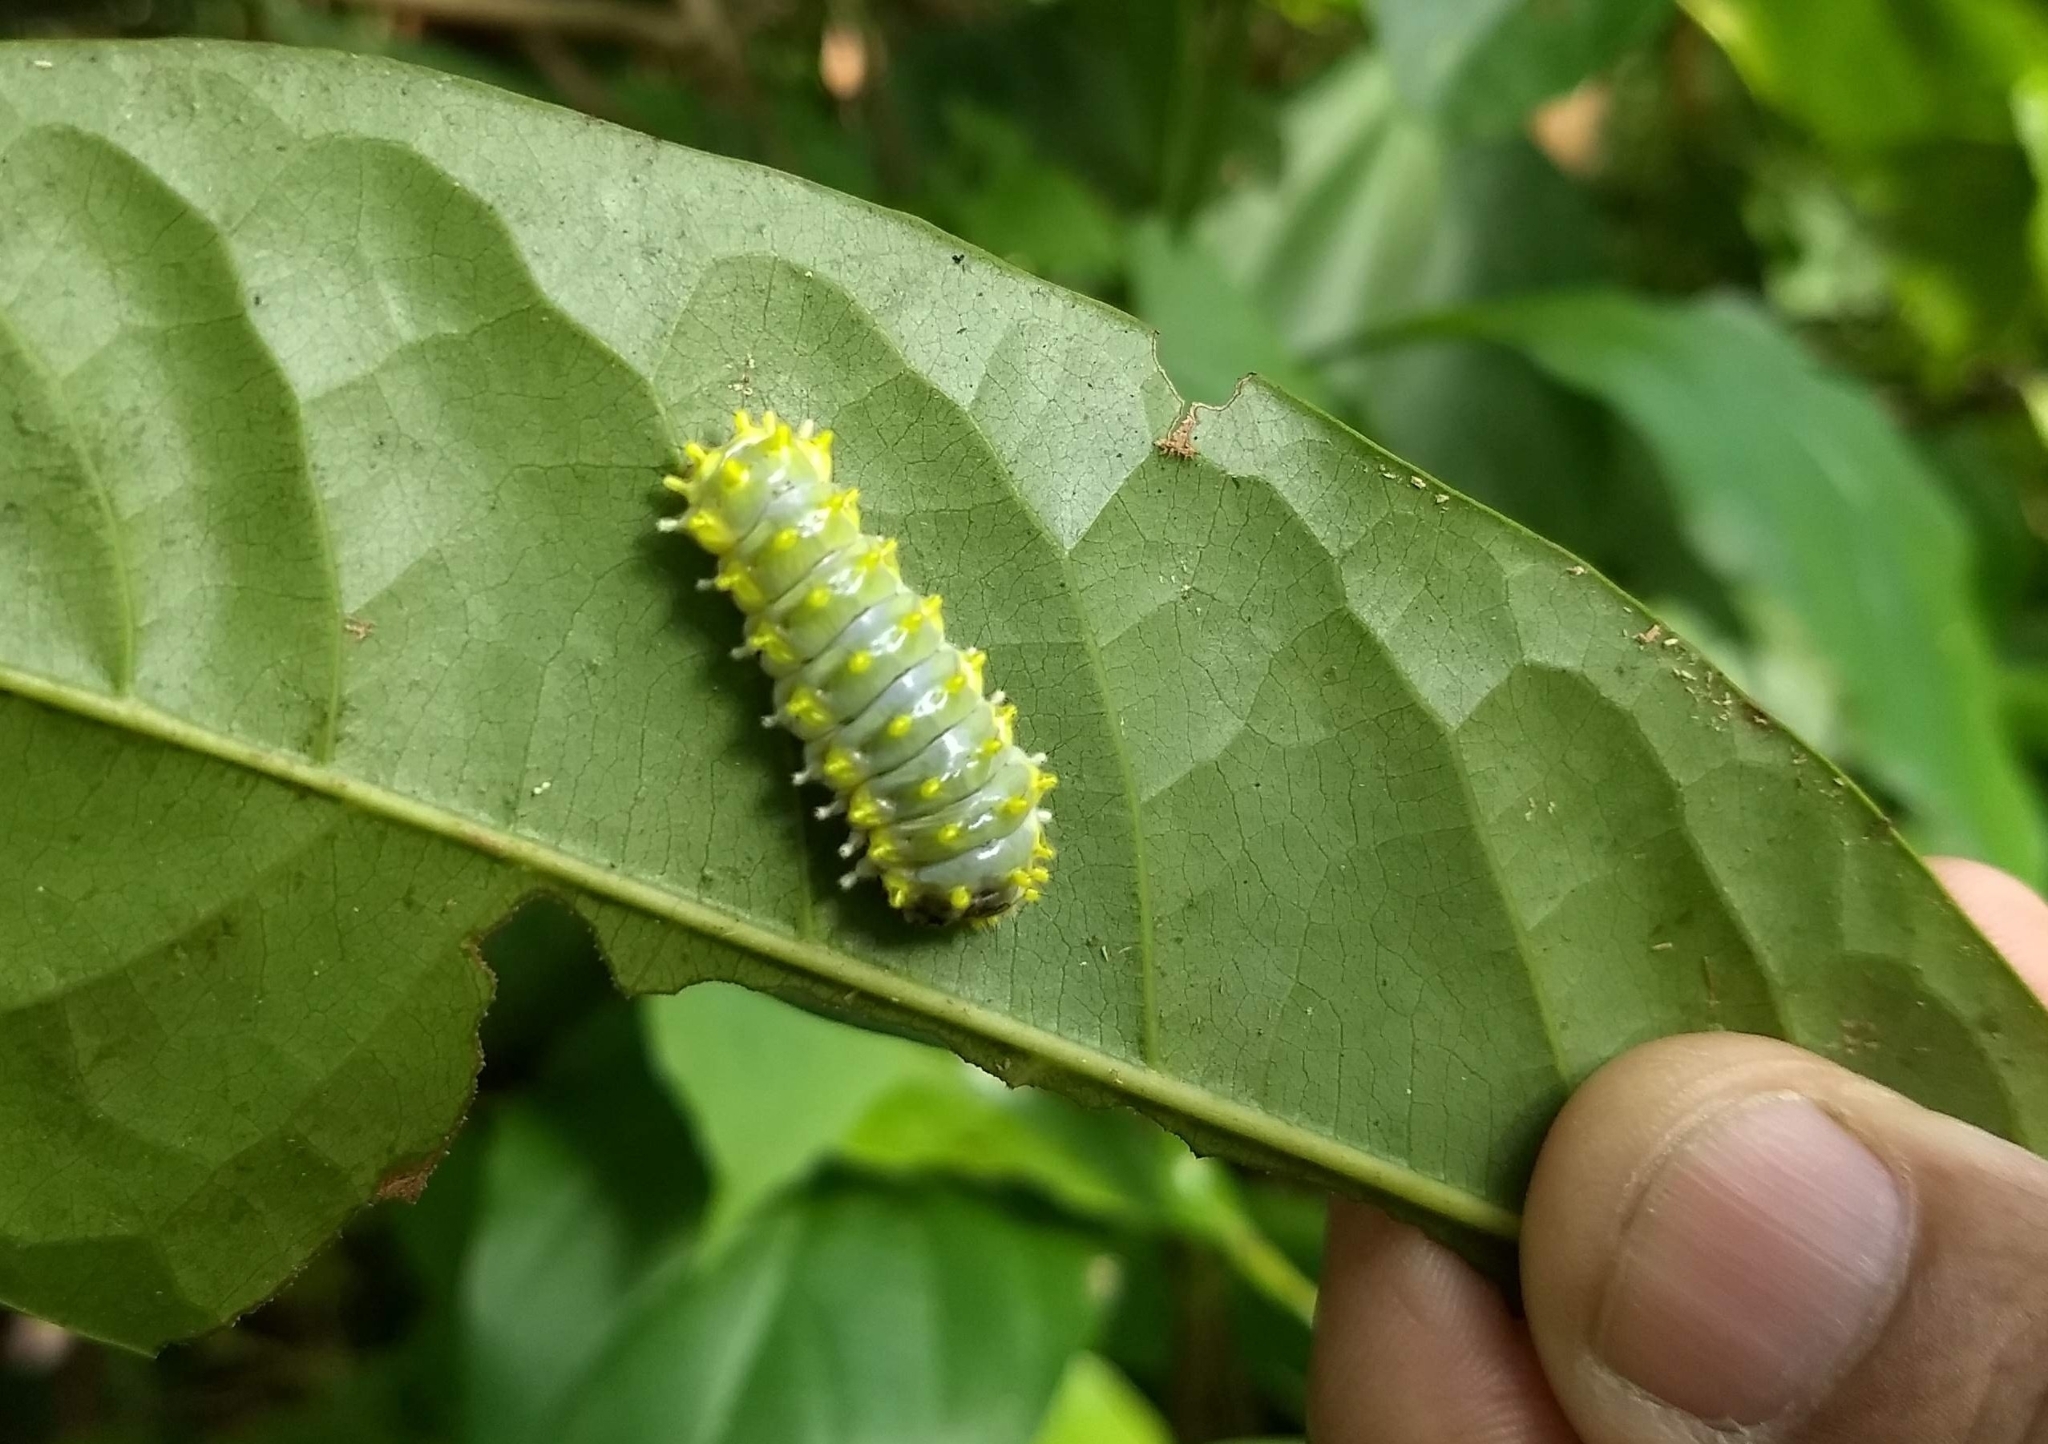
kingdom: Animalia
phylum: Arthropoda
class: Insecta
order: Lepidoptera
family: Zygaenidae
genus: Cyclosia
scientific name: Cyclosia
